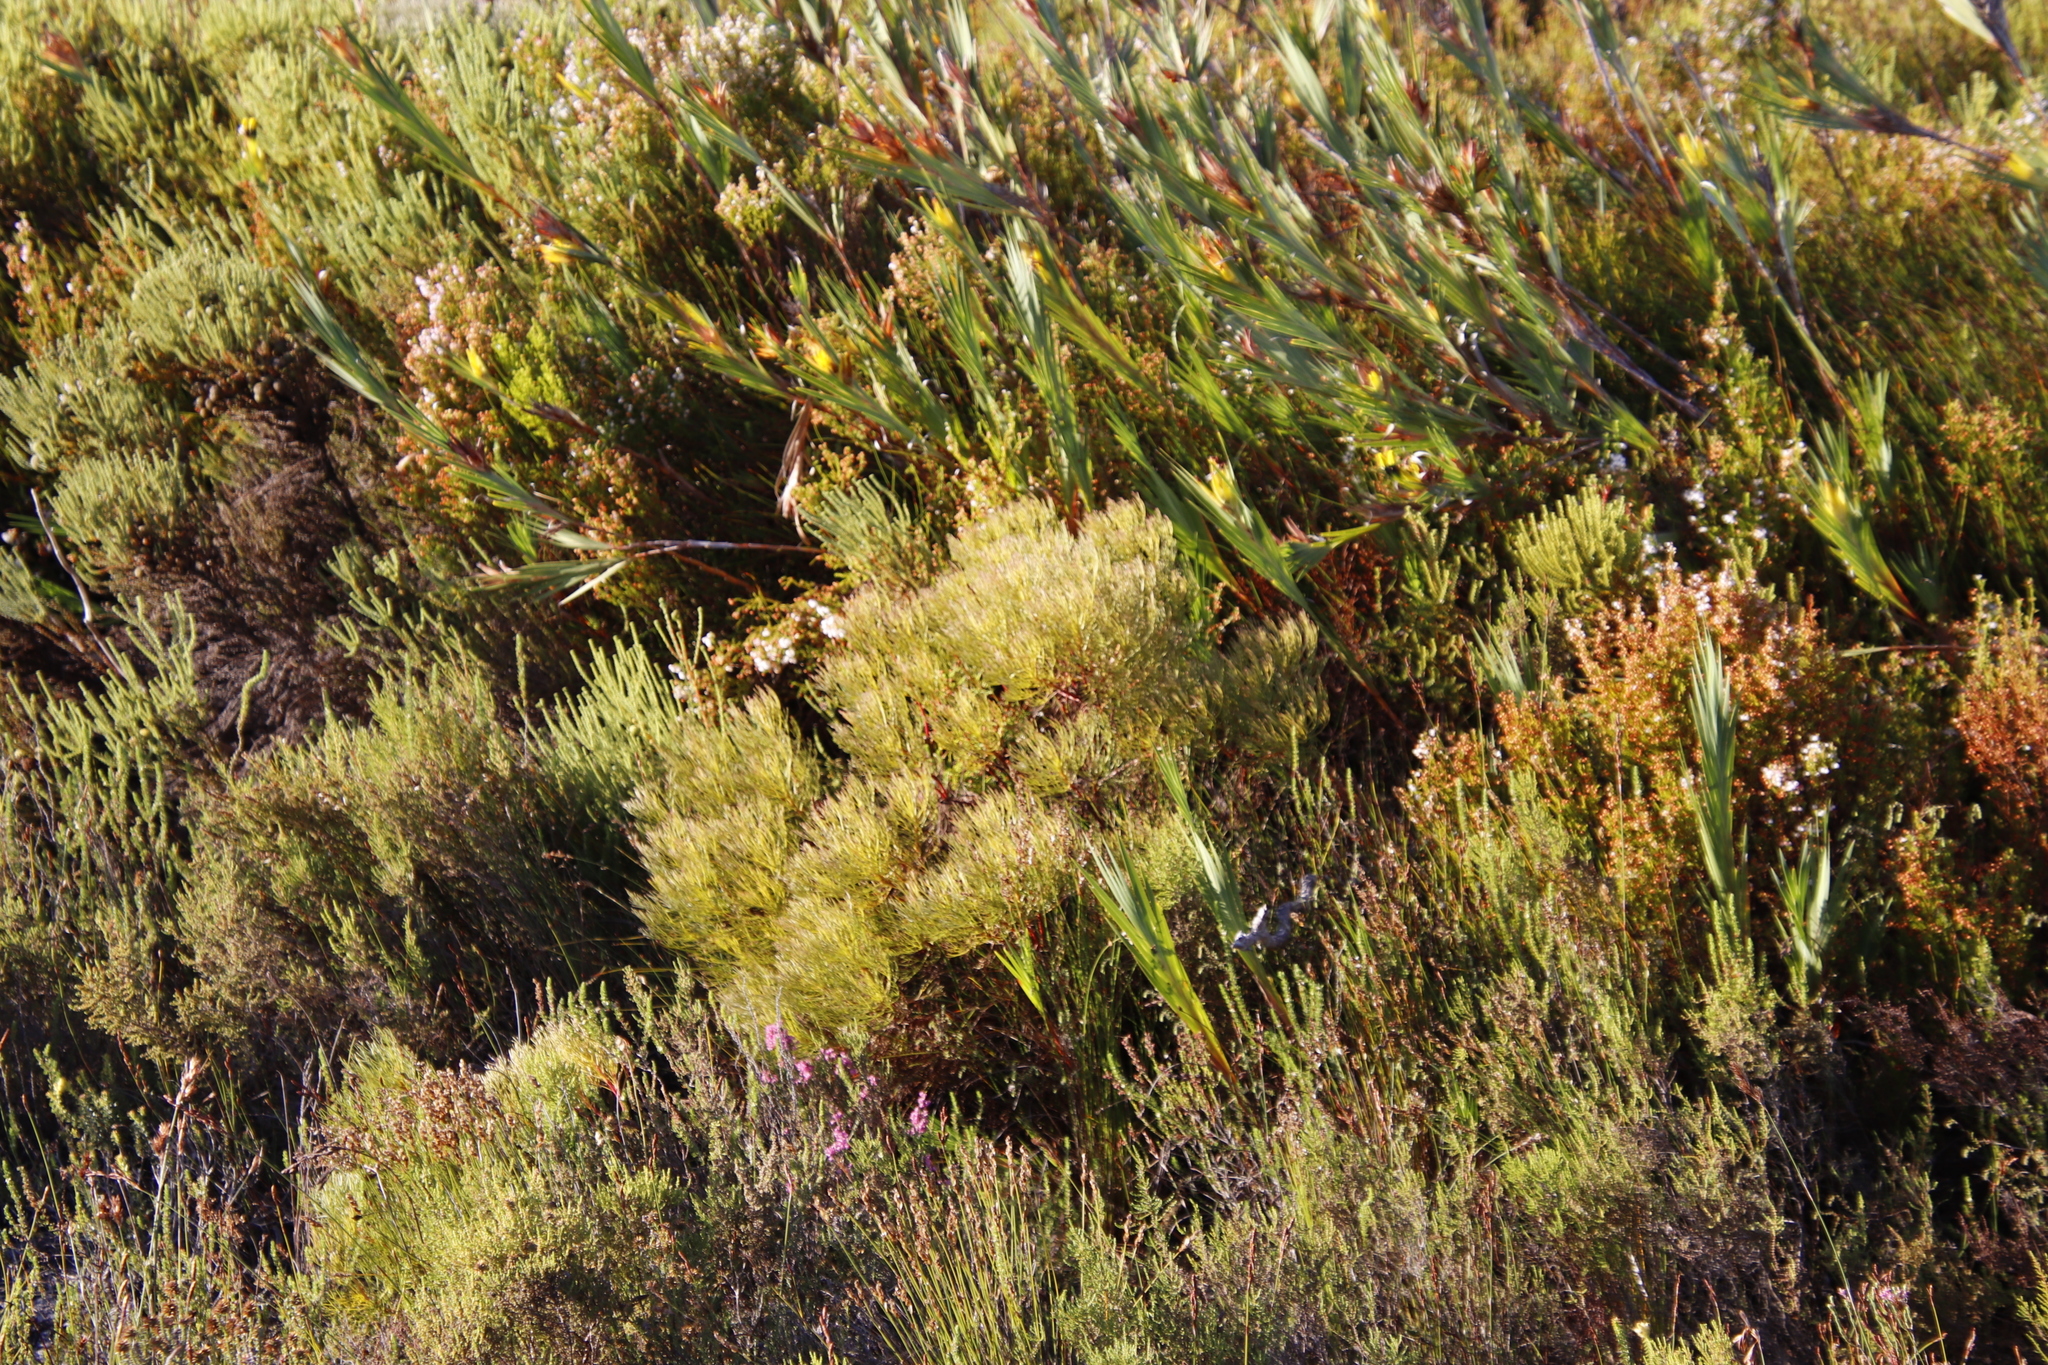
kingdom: Plantae
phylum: Tracheophyta
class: Magnoliopsida
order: Proteales
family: Proteaceae
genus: Serruria
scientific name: Serruria glomerata
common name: Cluster spiderhead
